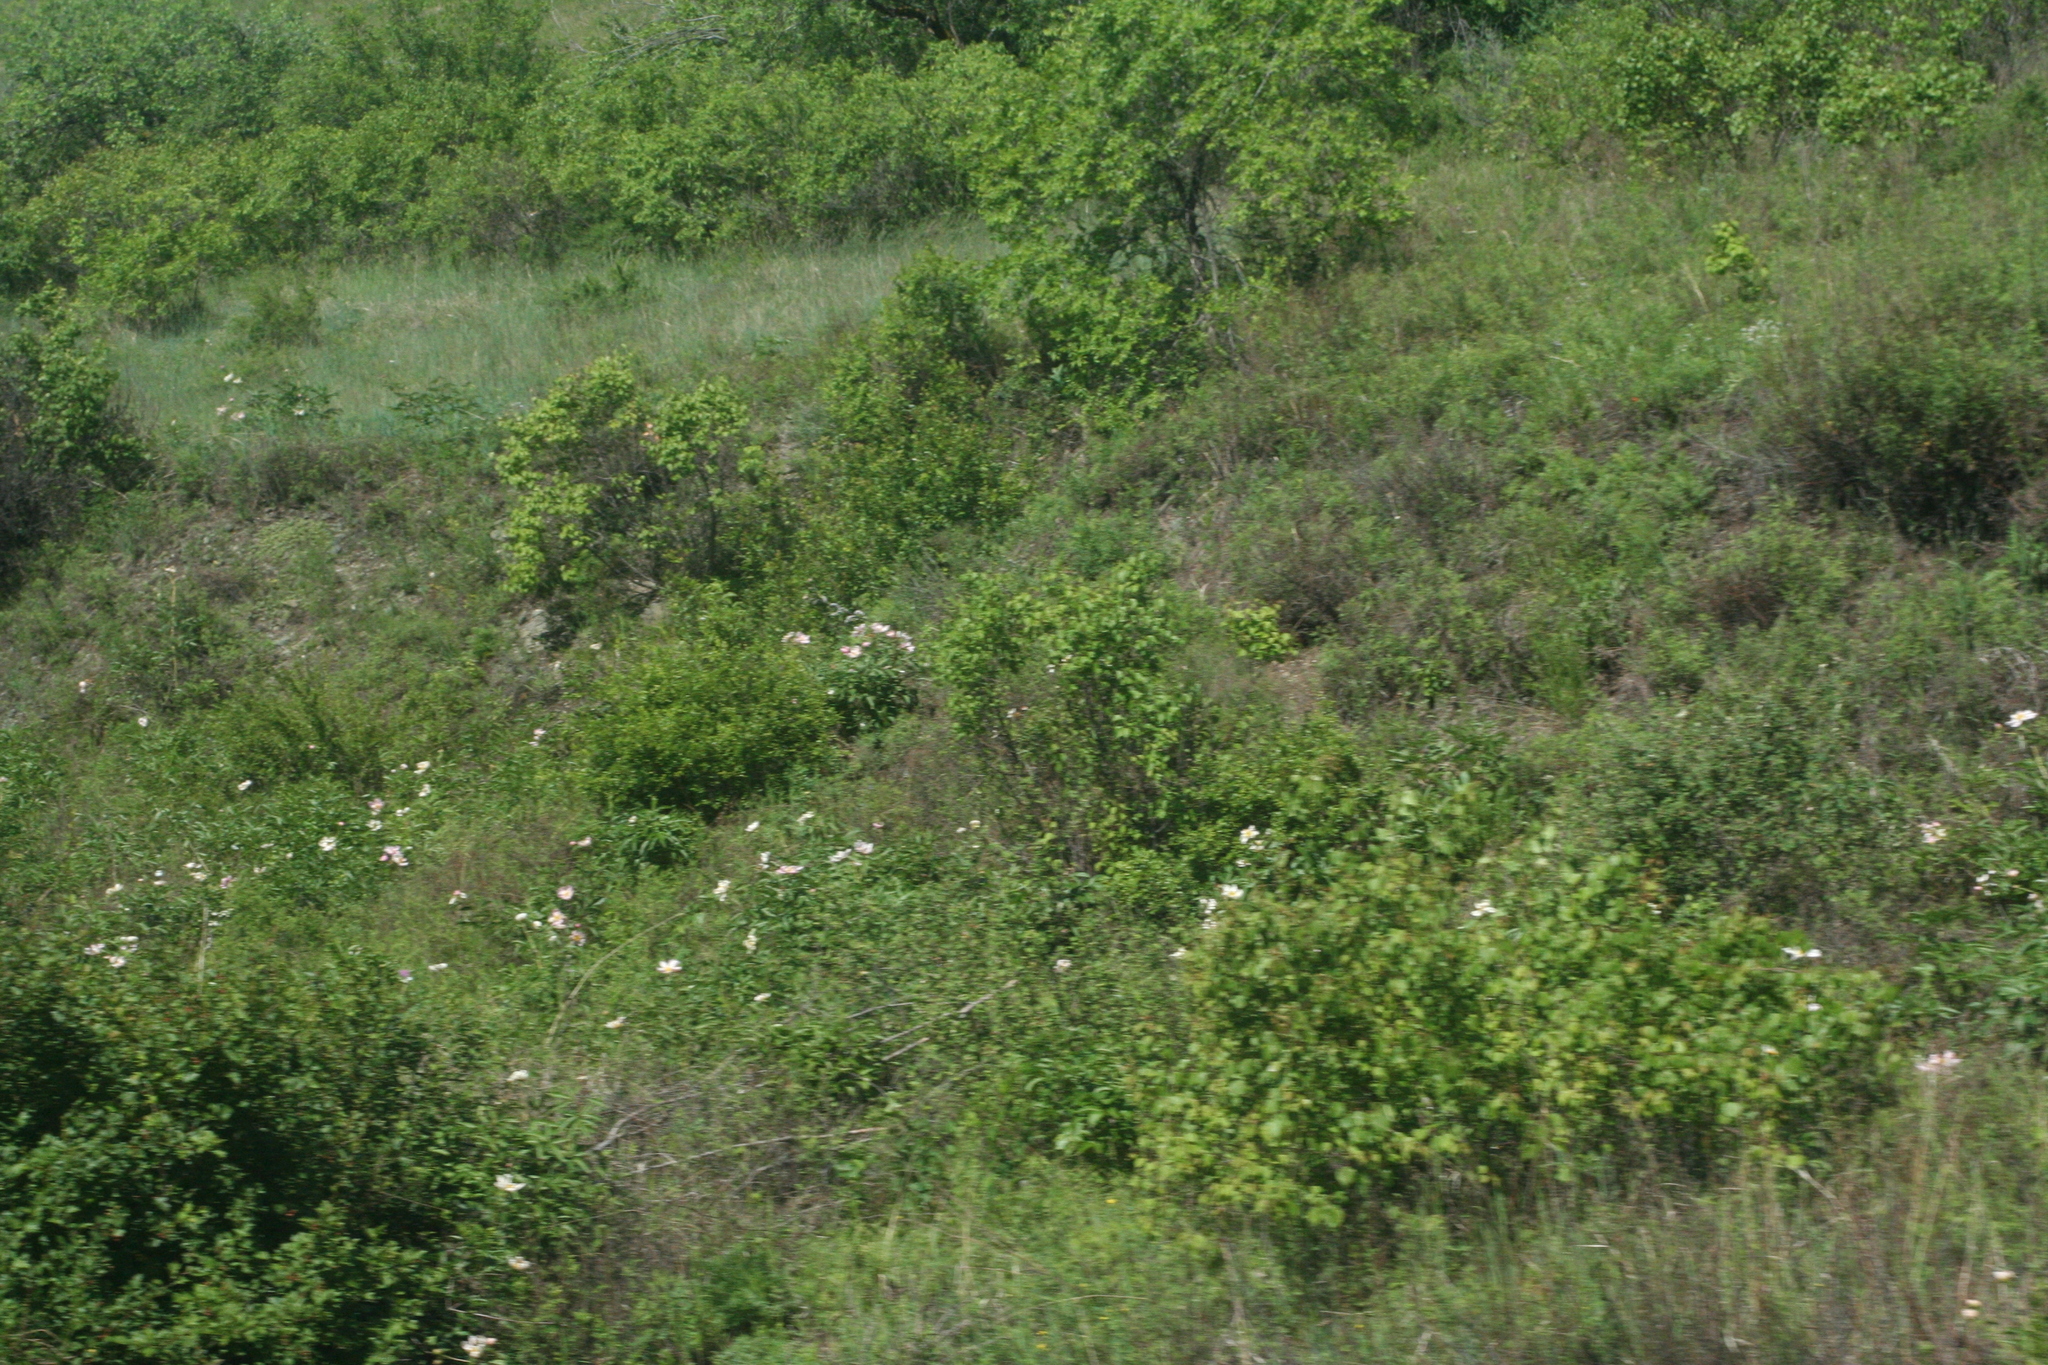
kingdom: Plantae
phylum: Tracheophyta
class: Magnoliopsida
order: Saxifragales
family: Paeoniaceae
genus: Paeonia
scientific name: Paeonia lactiflora
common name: Chinese peony
